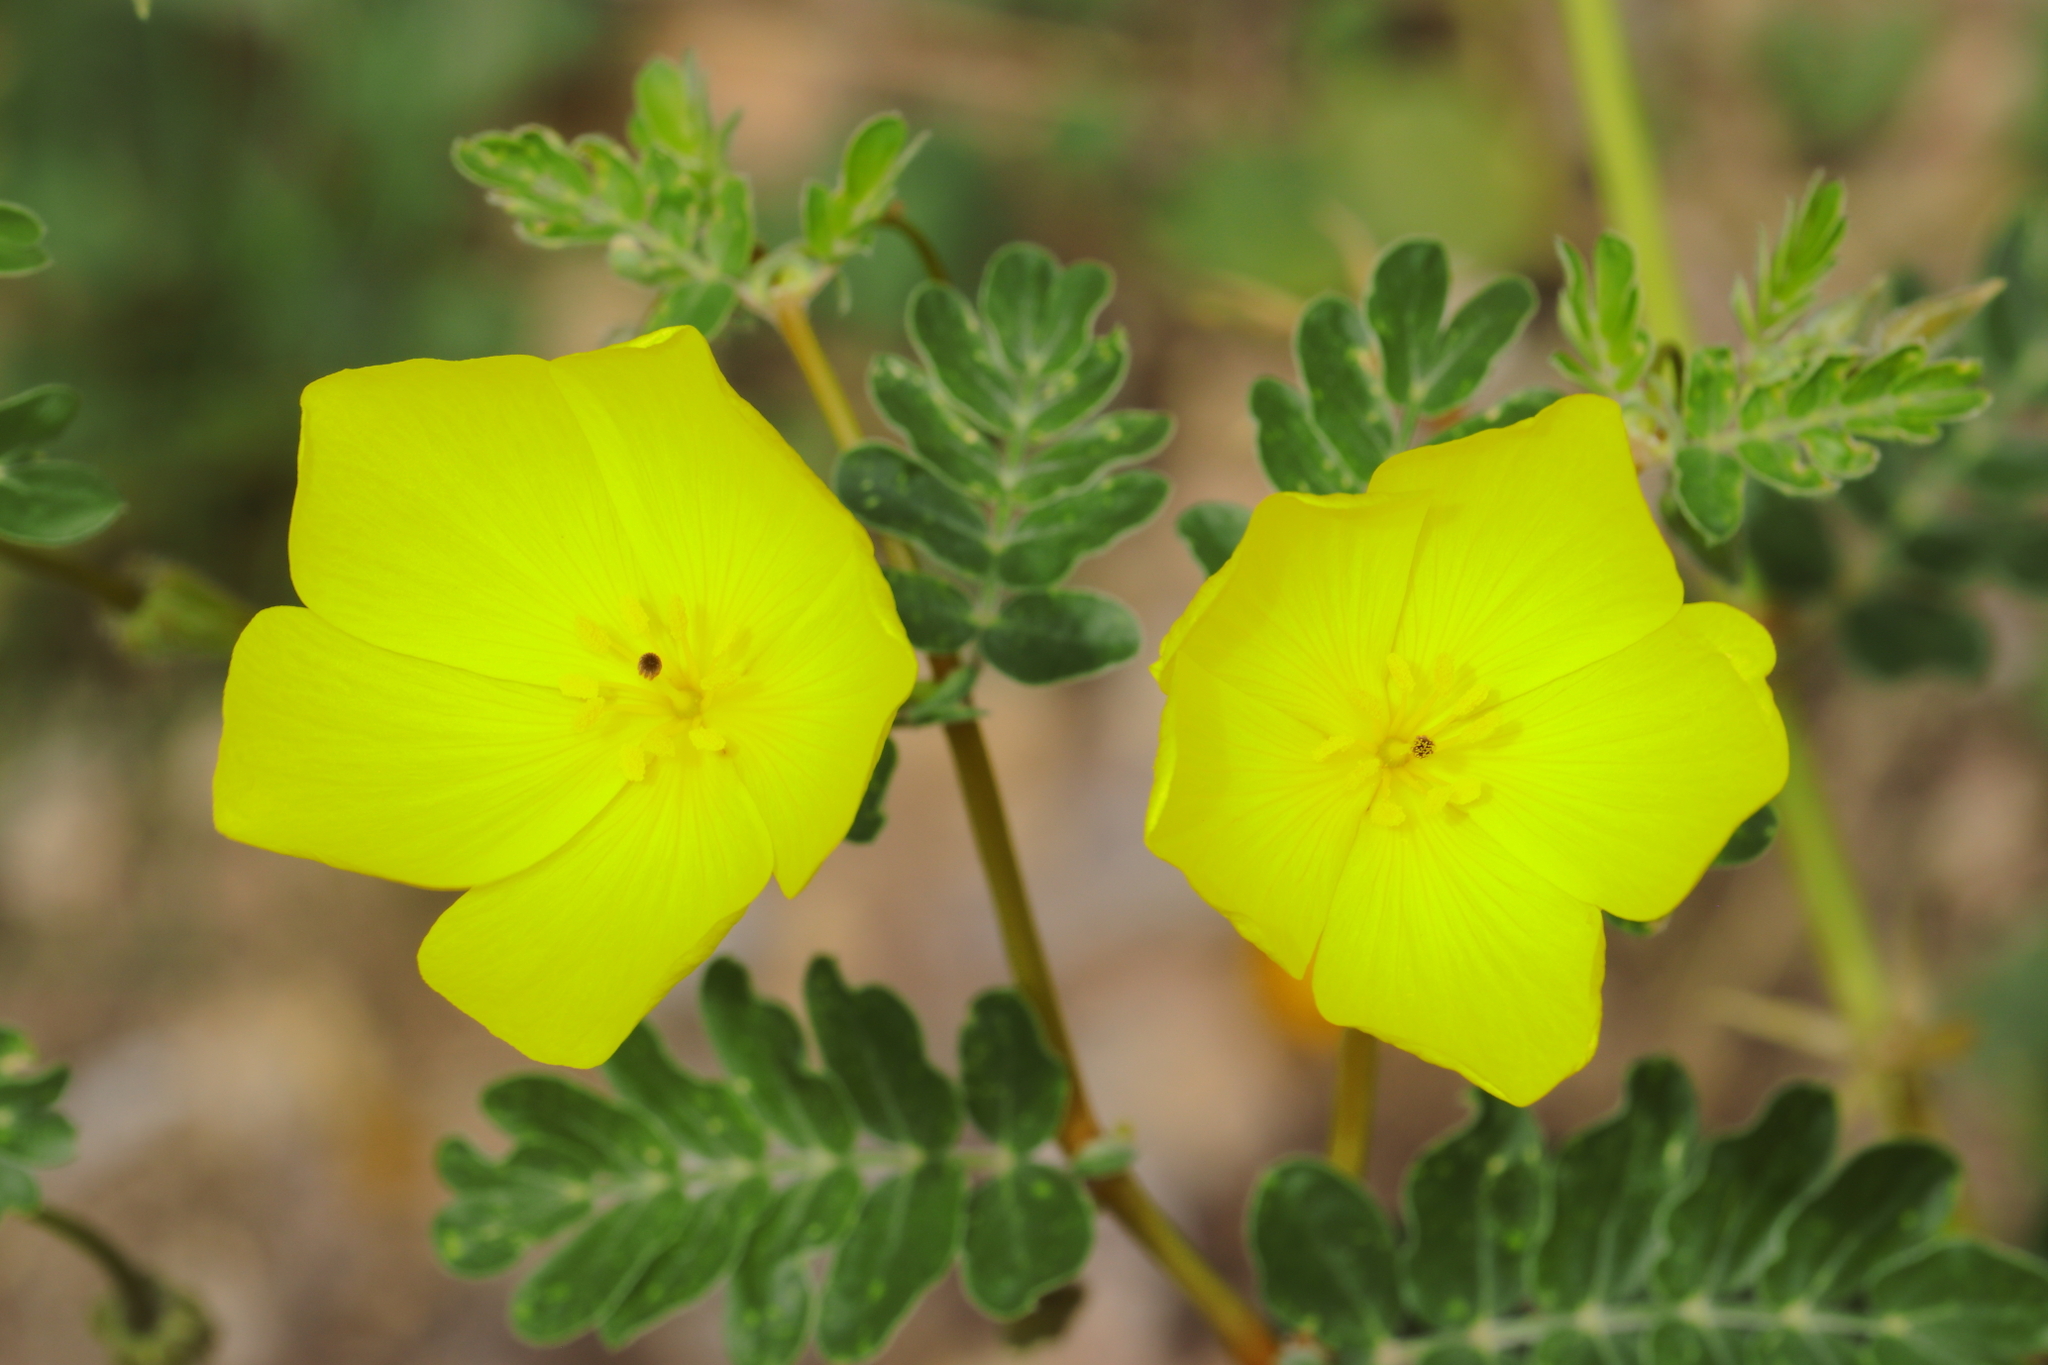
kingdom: Plantae
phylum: Tracheophyta
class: Magnoliopsida
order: Zygophyllales
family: Zygophyllaceae
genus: Kallstroemia
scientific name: Kallstroemia pennellii
